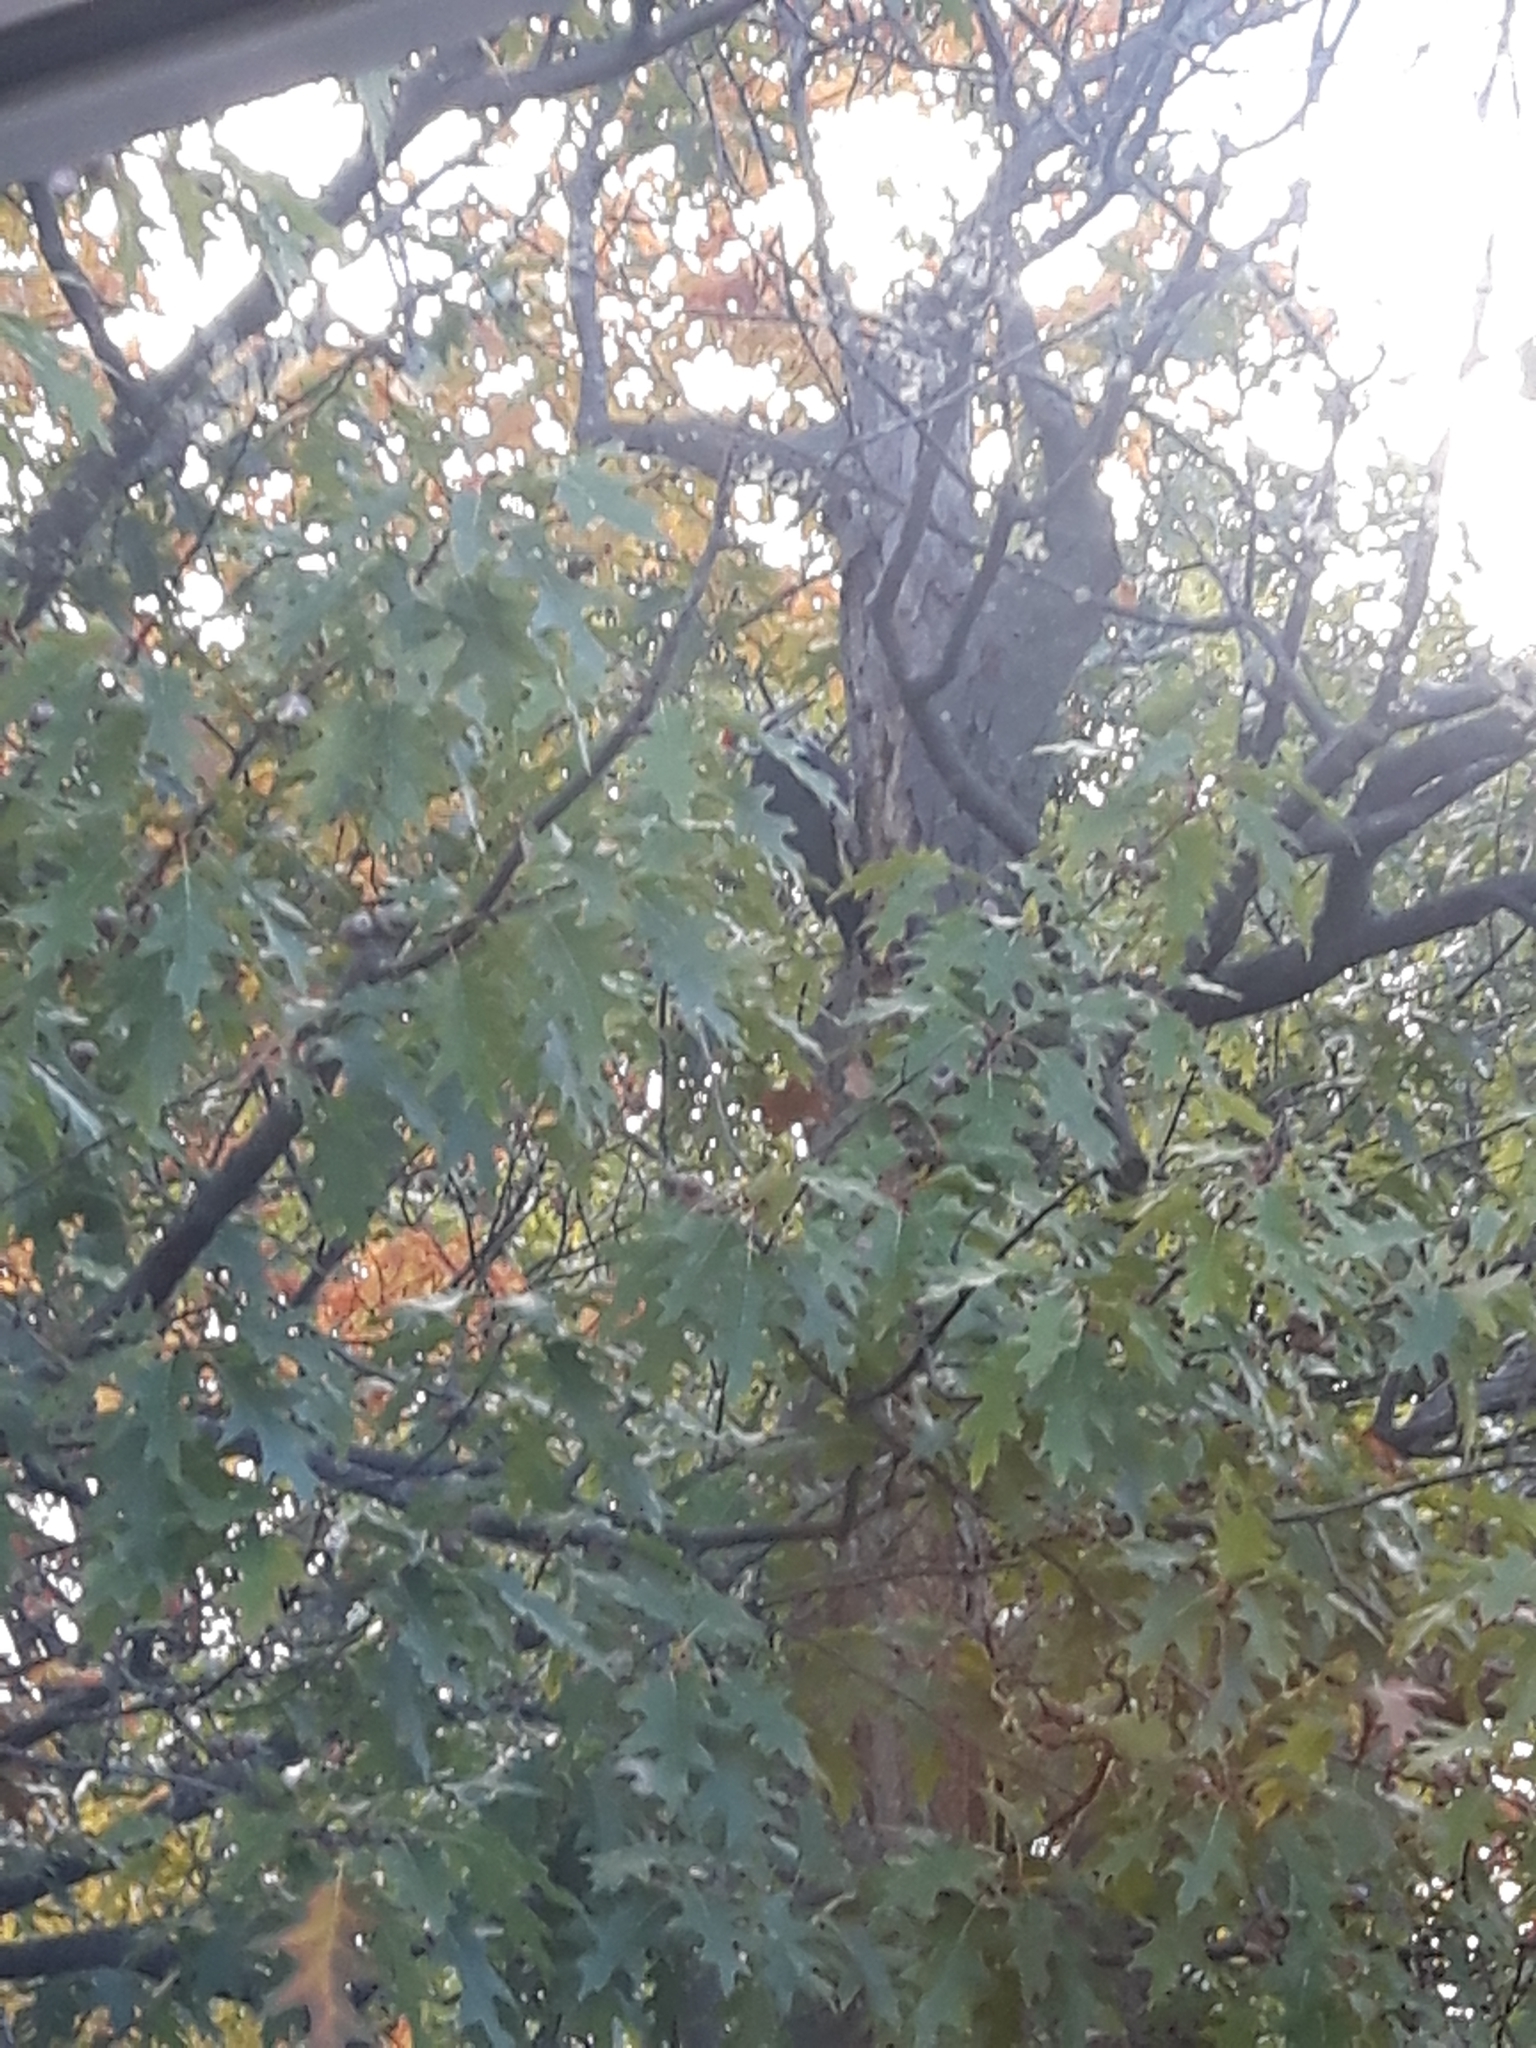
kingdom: Animalia
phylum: Chordata
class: Aves
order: Piciformes
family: Picidae
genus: Dryocopus
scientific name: Dryocopus pileatus
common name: Pileated woodpecker
